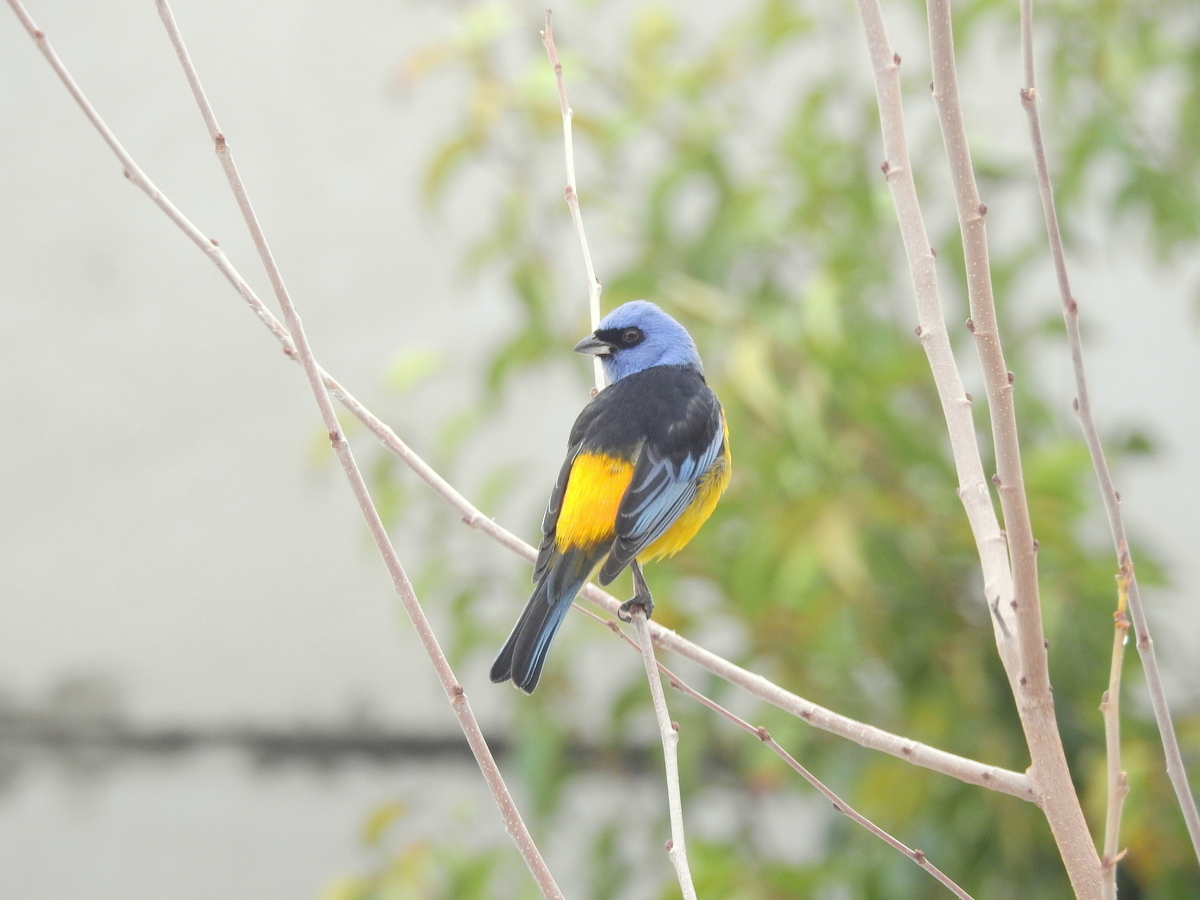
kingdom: Animalia
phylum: Chordata
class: Aves
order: Passeriformes
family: Thraupidae
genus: Rauenia
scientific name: Rauenia bonariensis
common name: Blue-and-yellow tanager
